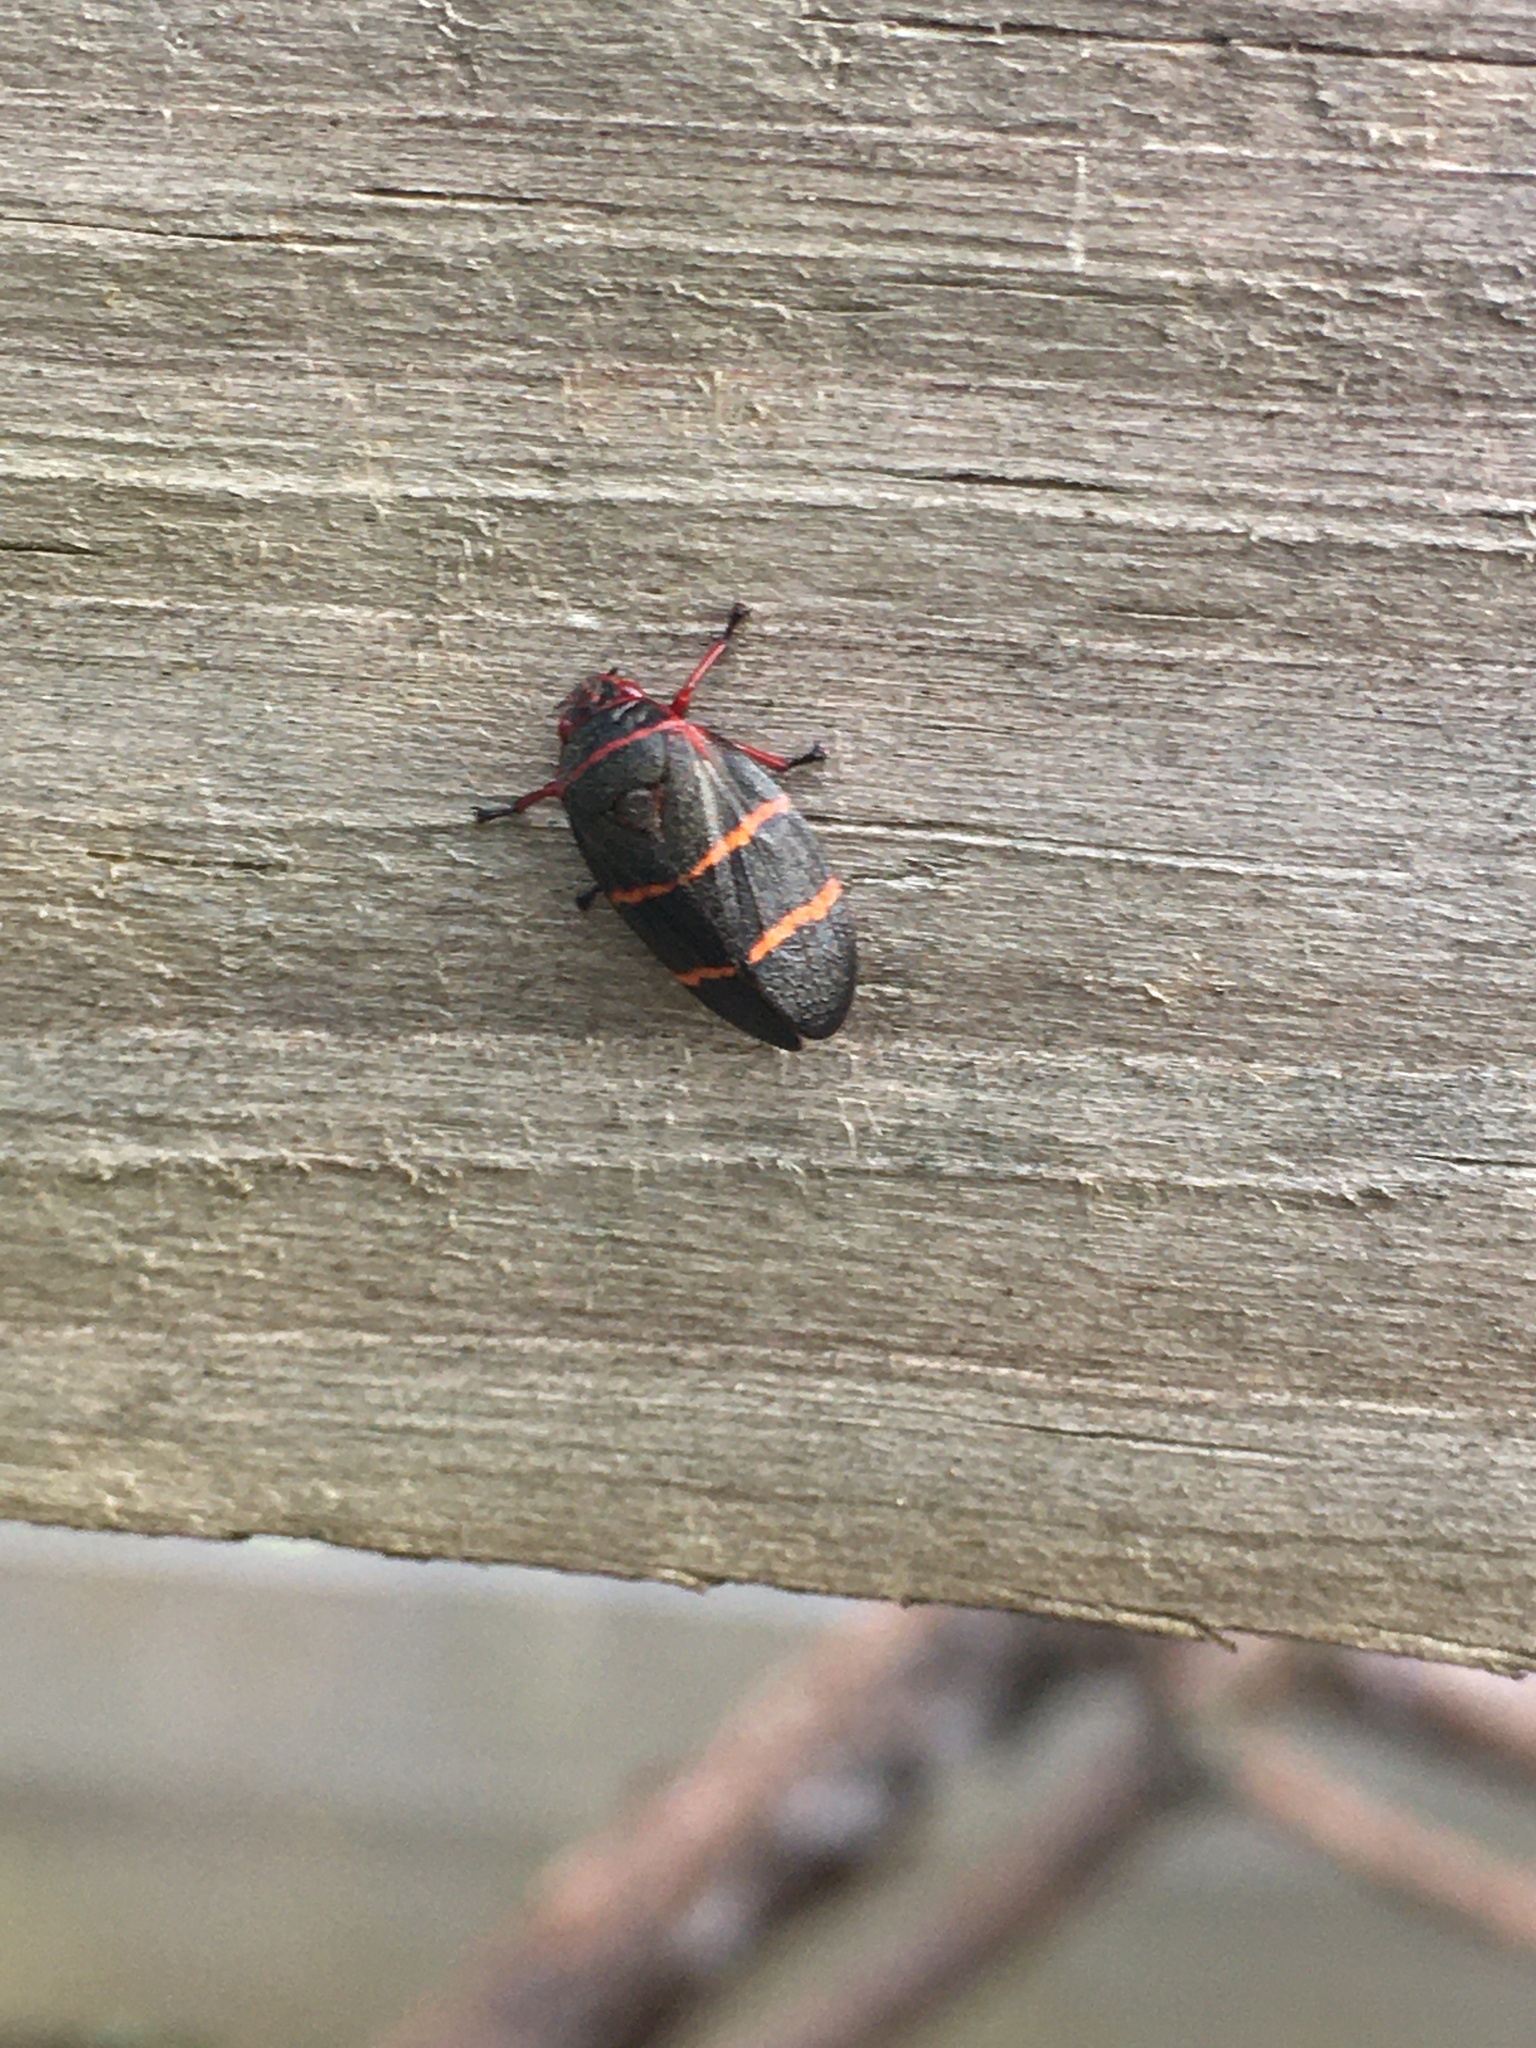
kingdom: Animalia
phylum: Arthropoda
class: Insecta
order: Hemiptera
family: Cercopidae
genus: Prosapia
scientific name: Prosapia bicincta
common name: Twolined spittlebug
